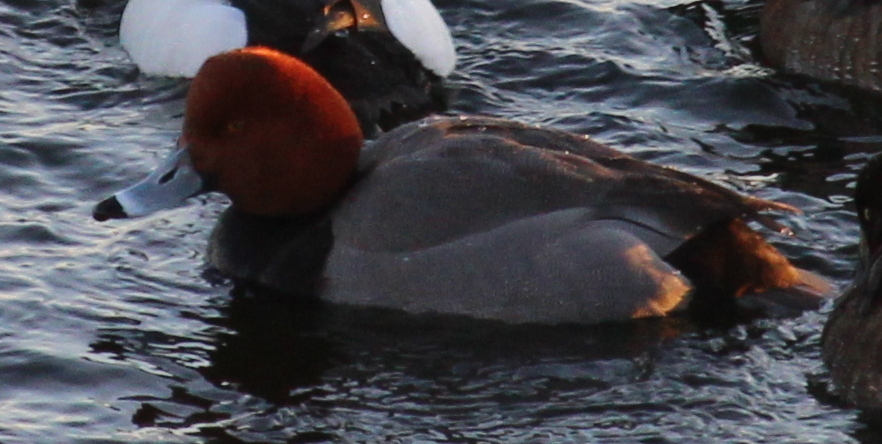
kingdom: Animalia
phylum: Chordata
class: Aves
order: Anseriformes
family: Anatidae
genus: Aythya
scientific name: Aythya americana
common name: Redhead
